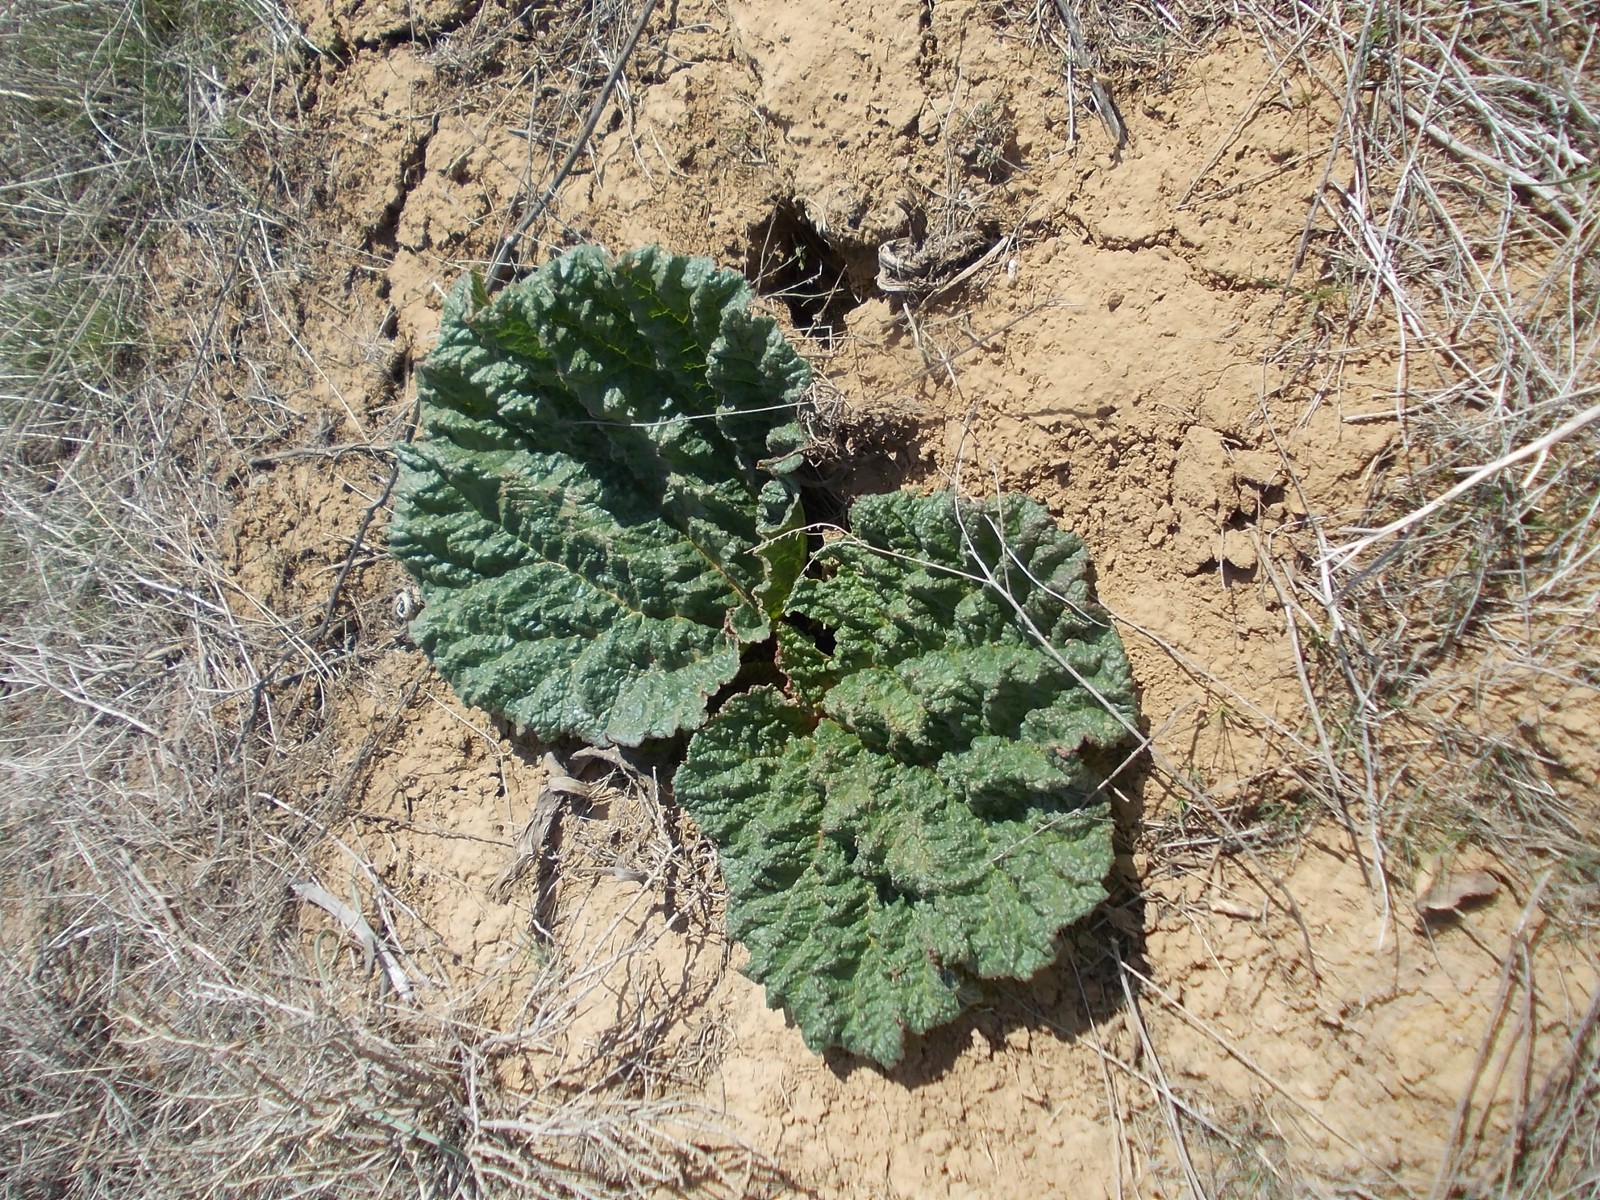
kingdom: Plantae
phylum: Tracheophyta
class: Magnoliopsida
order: Caryophyllales
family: Polygonaceae
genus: Rheum
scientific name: Rheum tataricum
